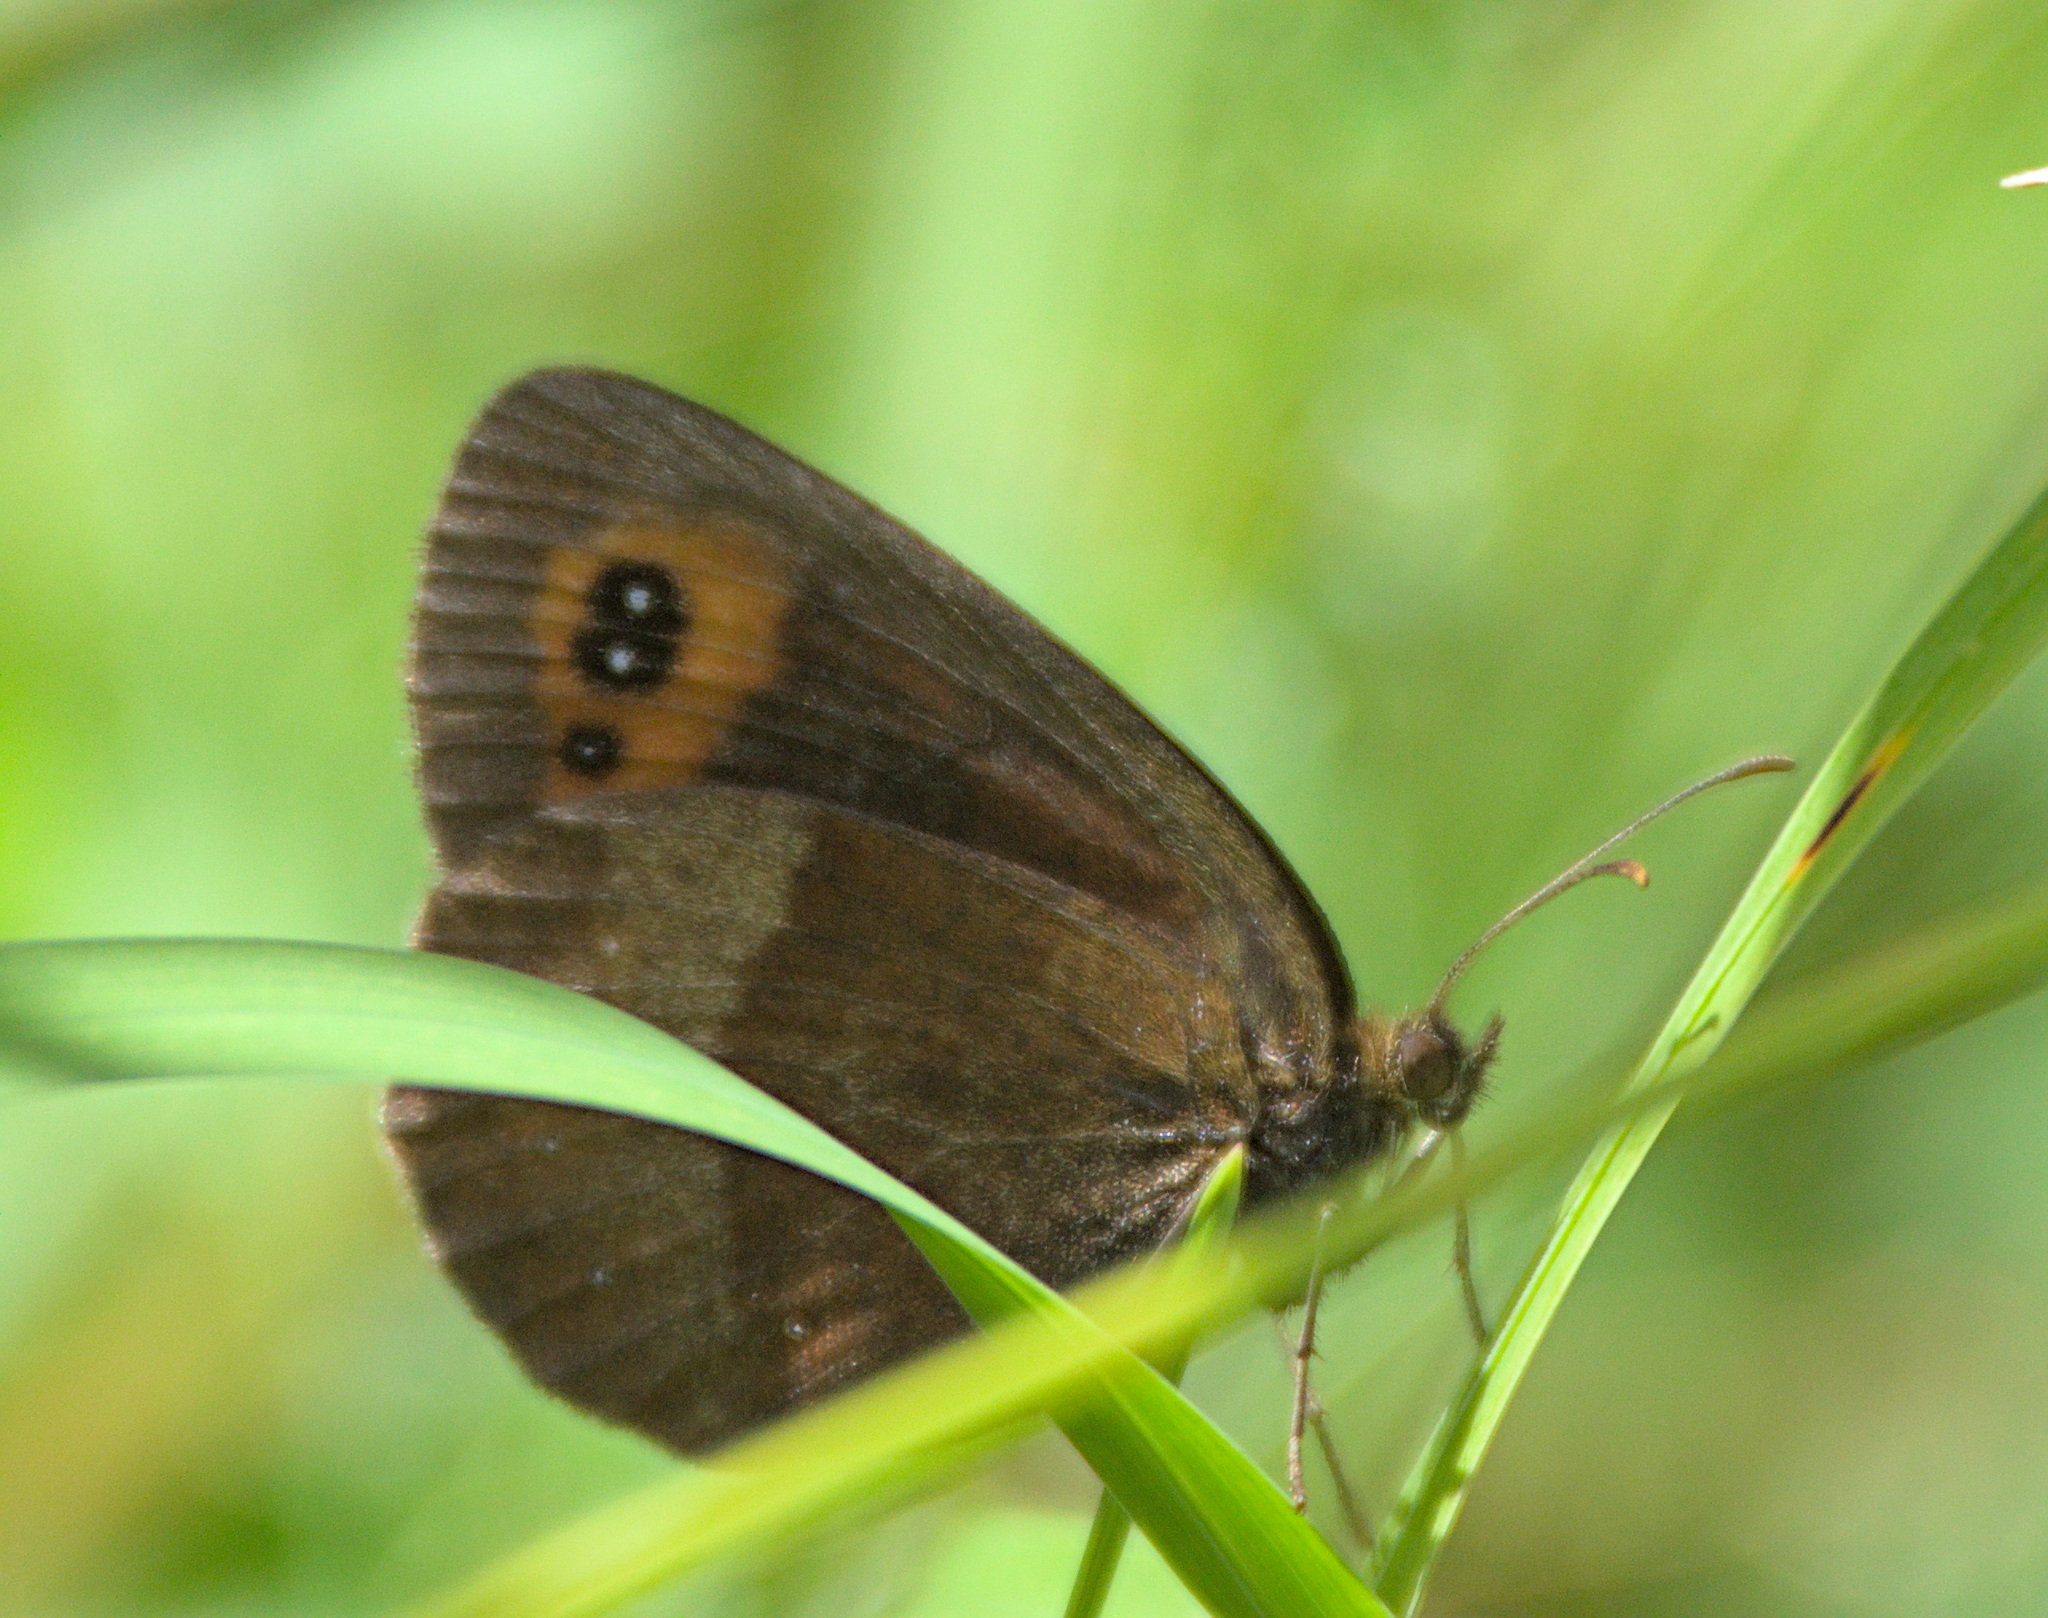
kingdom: Animalia
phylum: Arthropoda
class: Insecta
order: Lepidoptera
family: Nymphalidae
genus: Erebia
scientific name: Erebia aethiops
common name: Scotch argus
